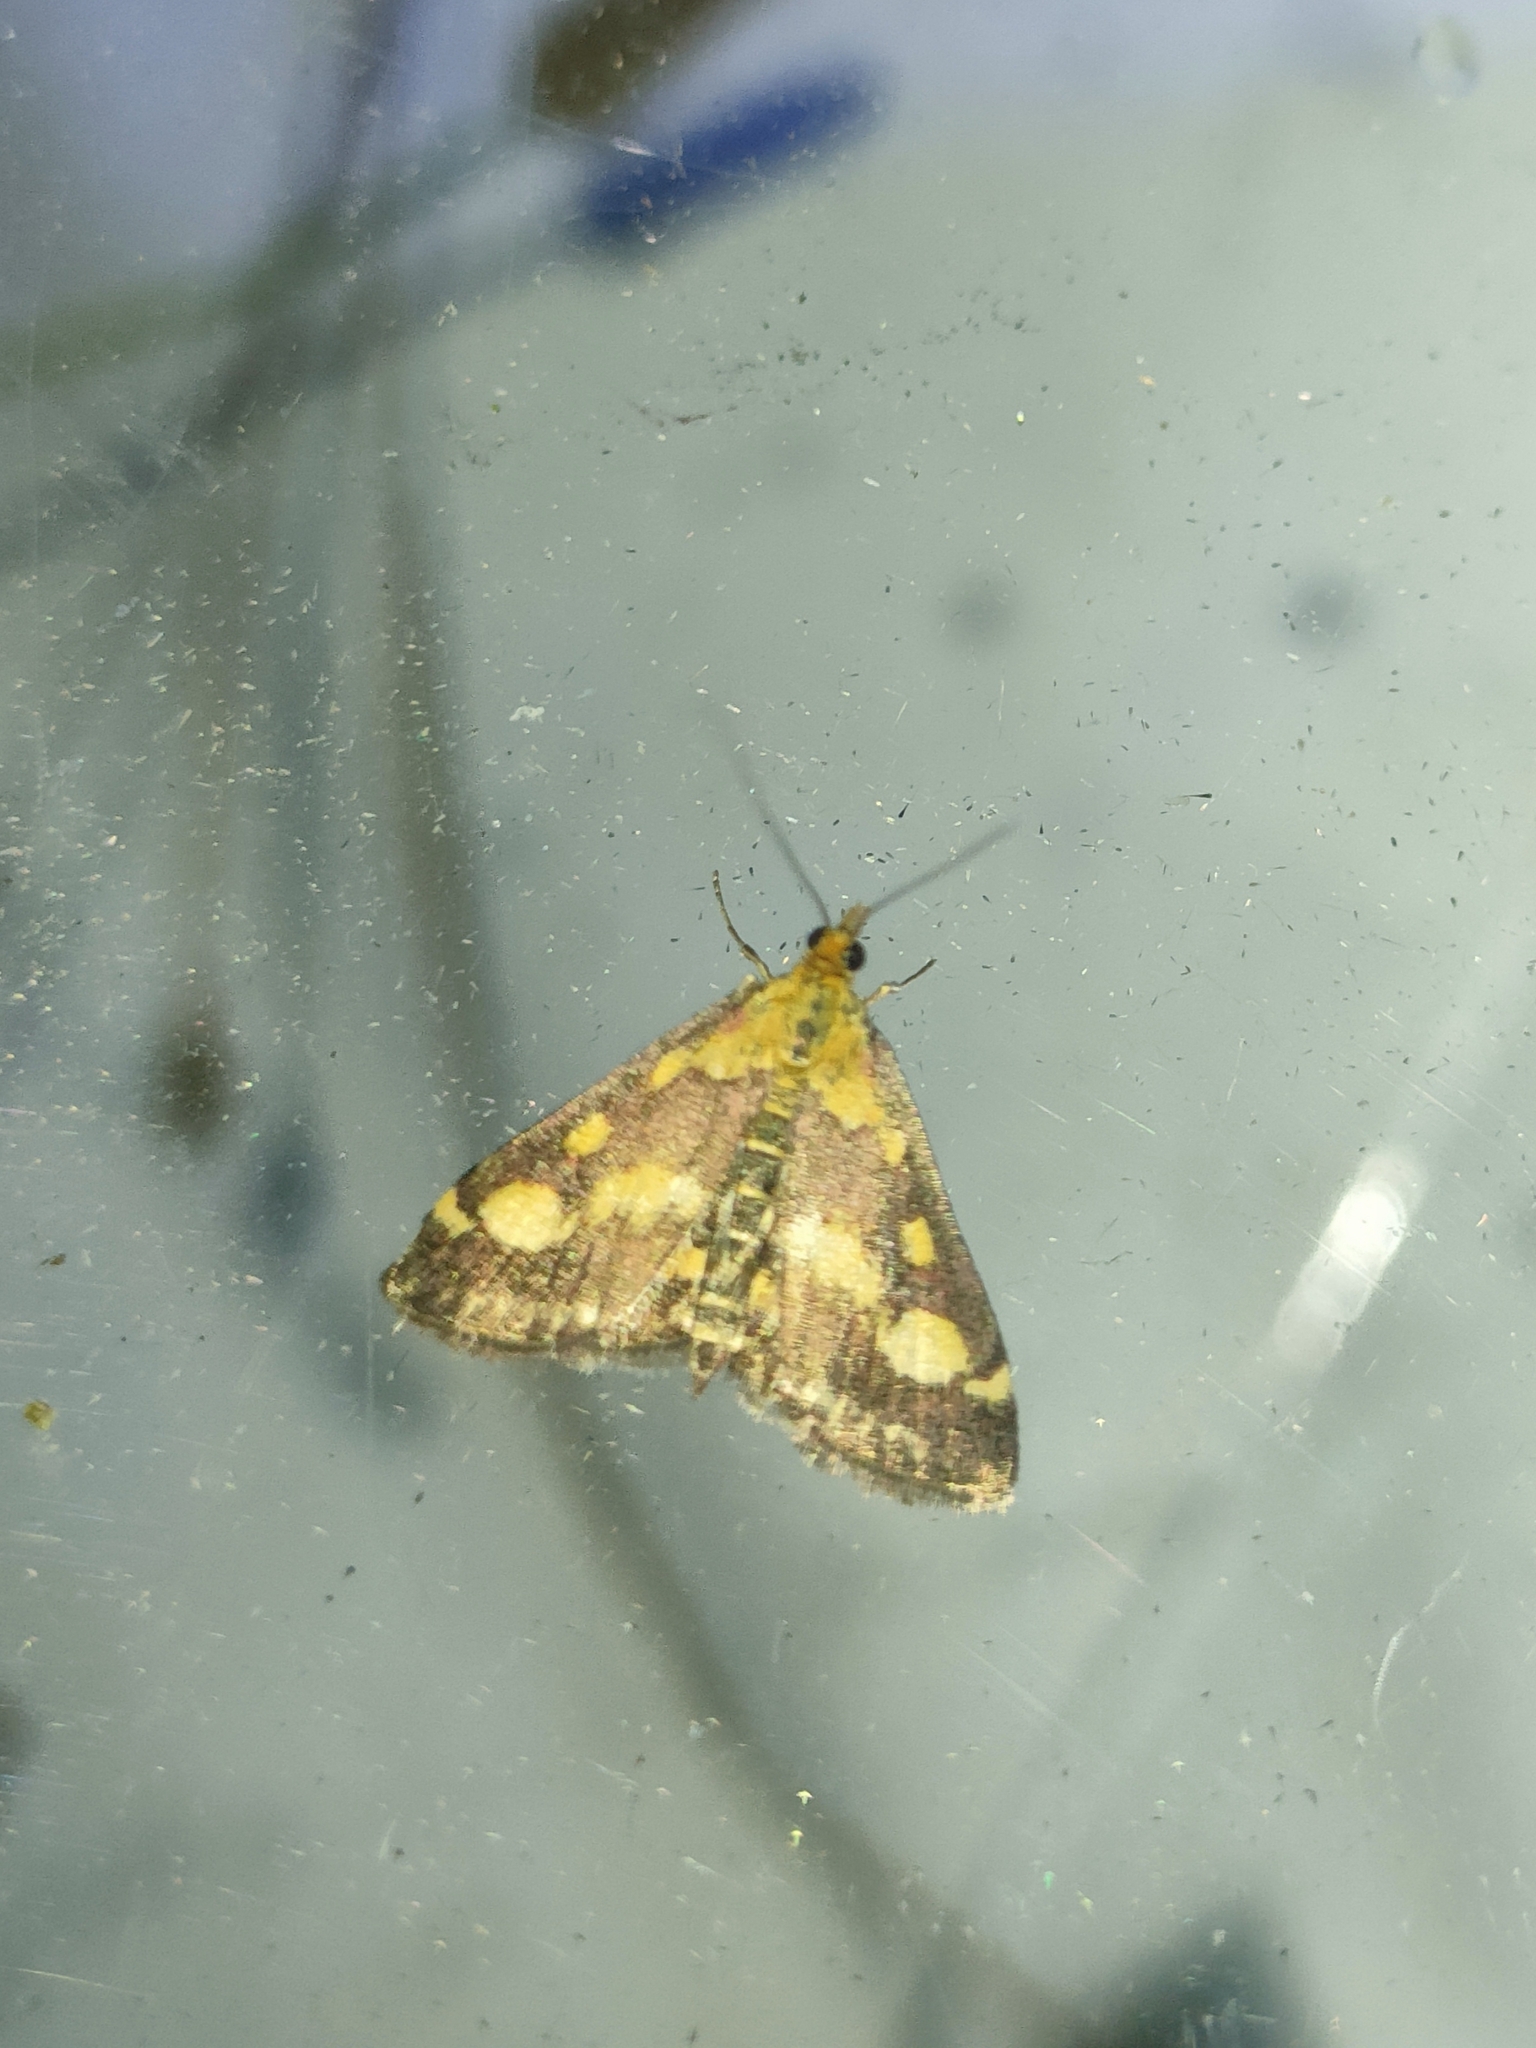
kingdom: Animalia
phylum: Arthropoda
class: Insecta
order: Lepidoptera
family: Crambidae
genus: Pyrausta
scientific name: Pyrausta purpuralis
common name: Common purple & gold
